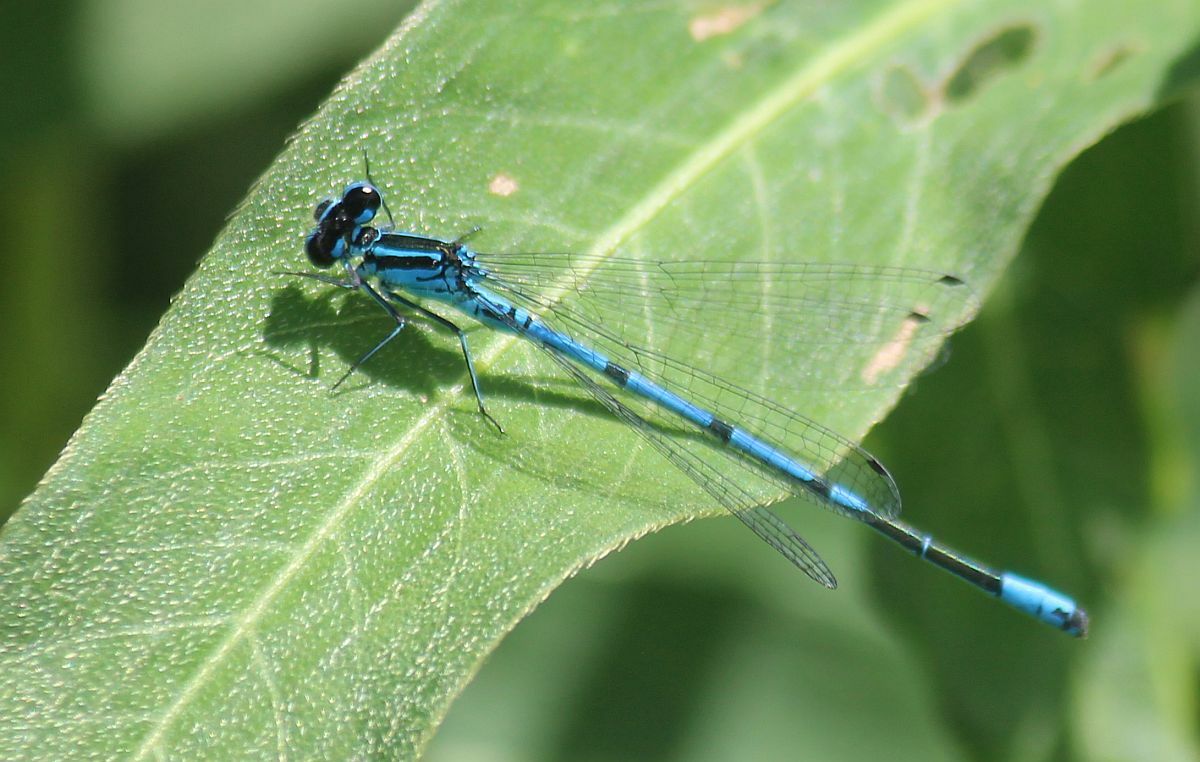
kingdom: Animalia
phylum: Arthropoda
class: Insecta
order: Odonata
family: Coenagrionidae
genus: Coenagrion
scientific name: Coenagrion puella
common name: Azure damselfly
